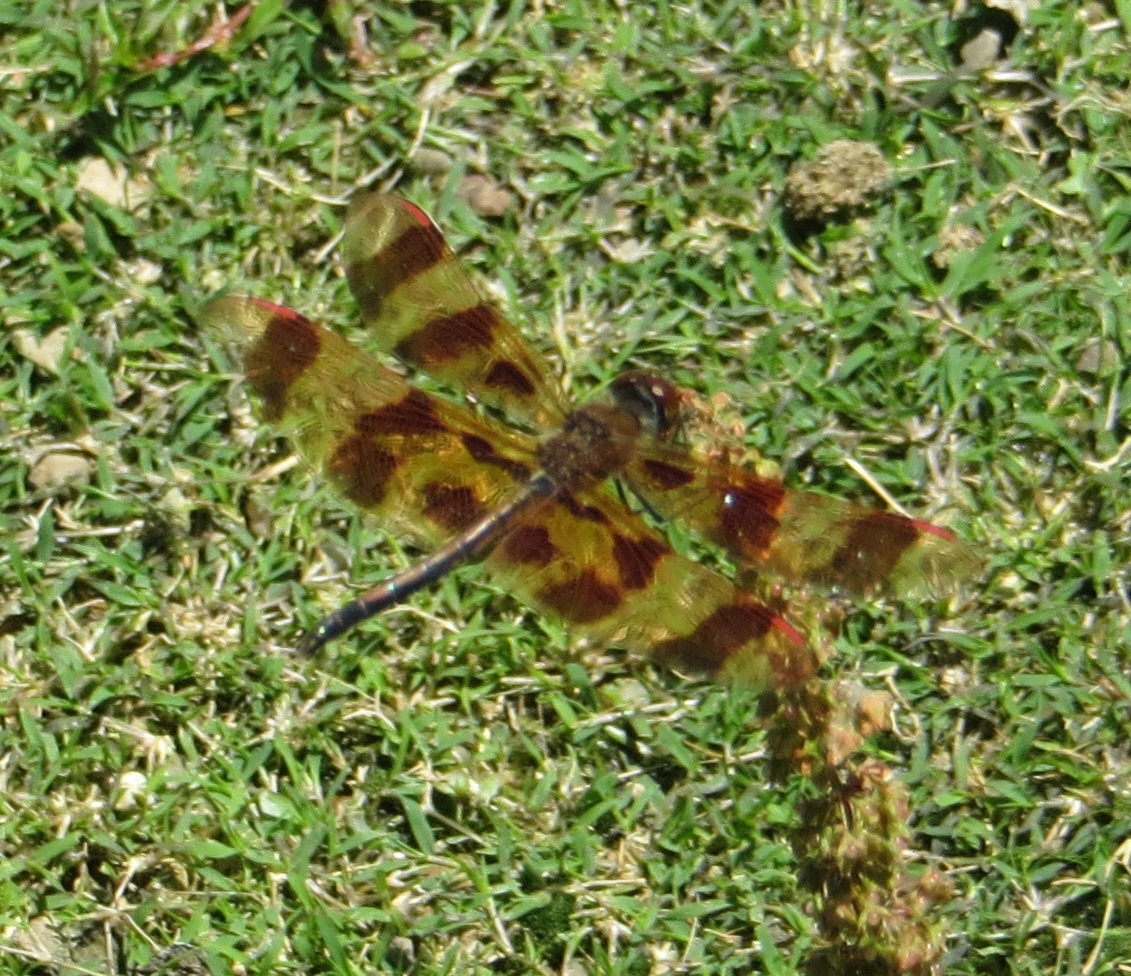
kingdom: Animalia
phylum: Arthropoda
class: Insecta
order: Odonata
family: Libellulidae
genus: Celithemis
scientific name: Celithemis eponina
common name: Halloween pennant
